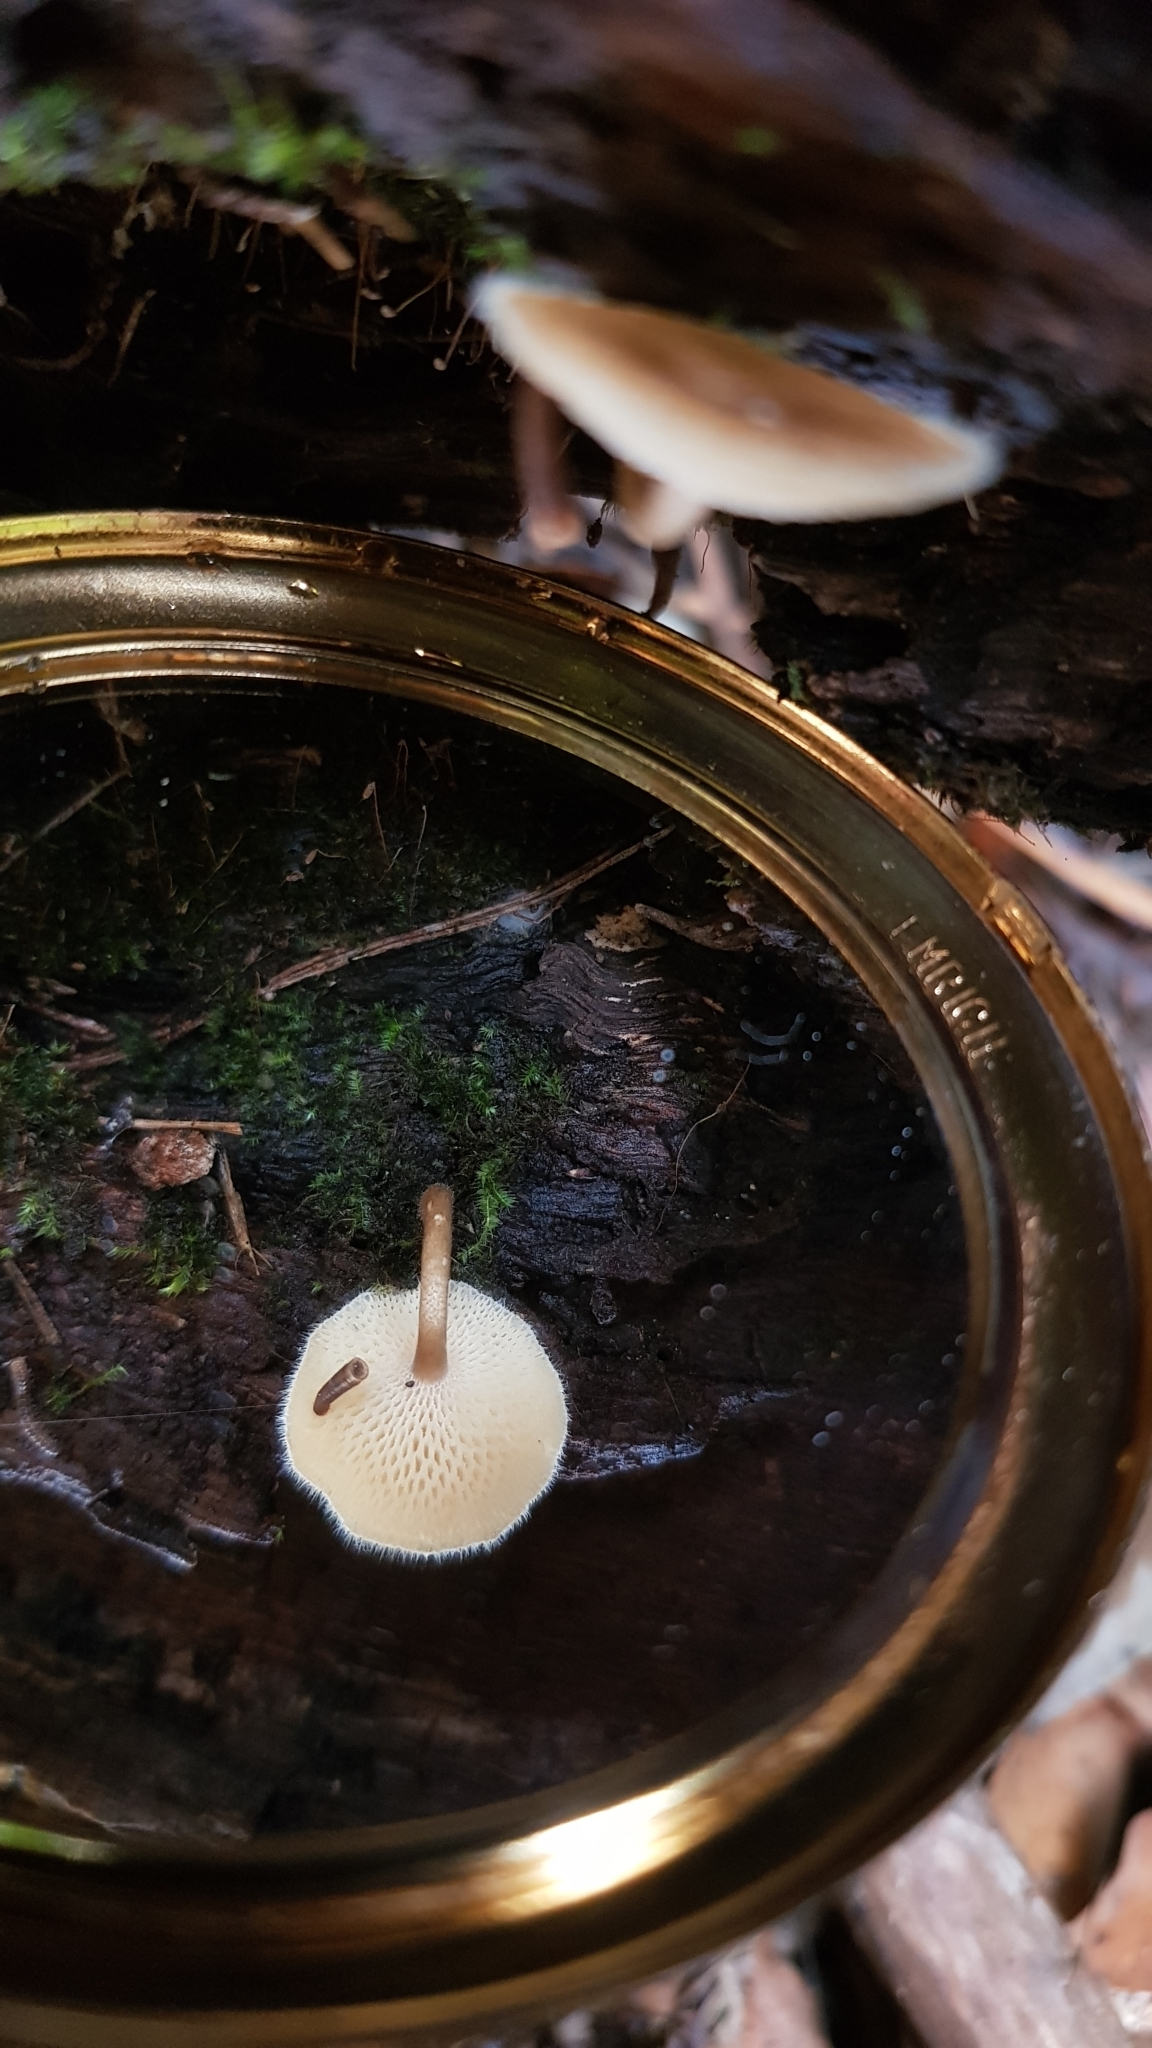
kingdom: Fungi
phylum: Basidiomycota
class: Agaricomycetes
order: Polyporales
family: Polyporaceae
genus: Lentinus
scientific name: Lentinus arcularius
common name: Spring polypore
